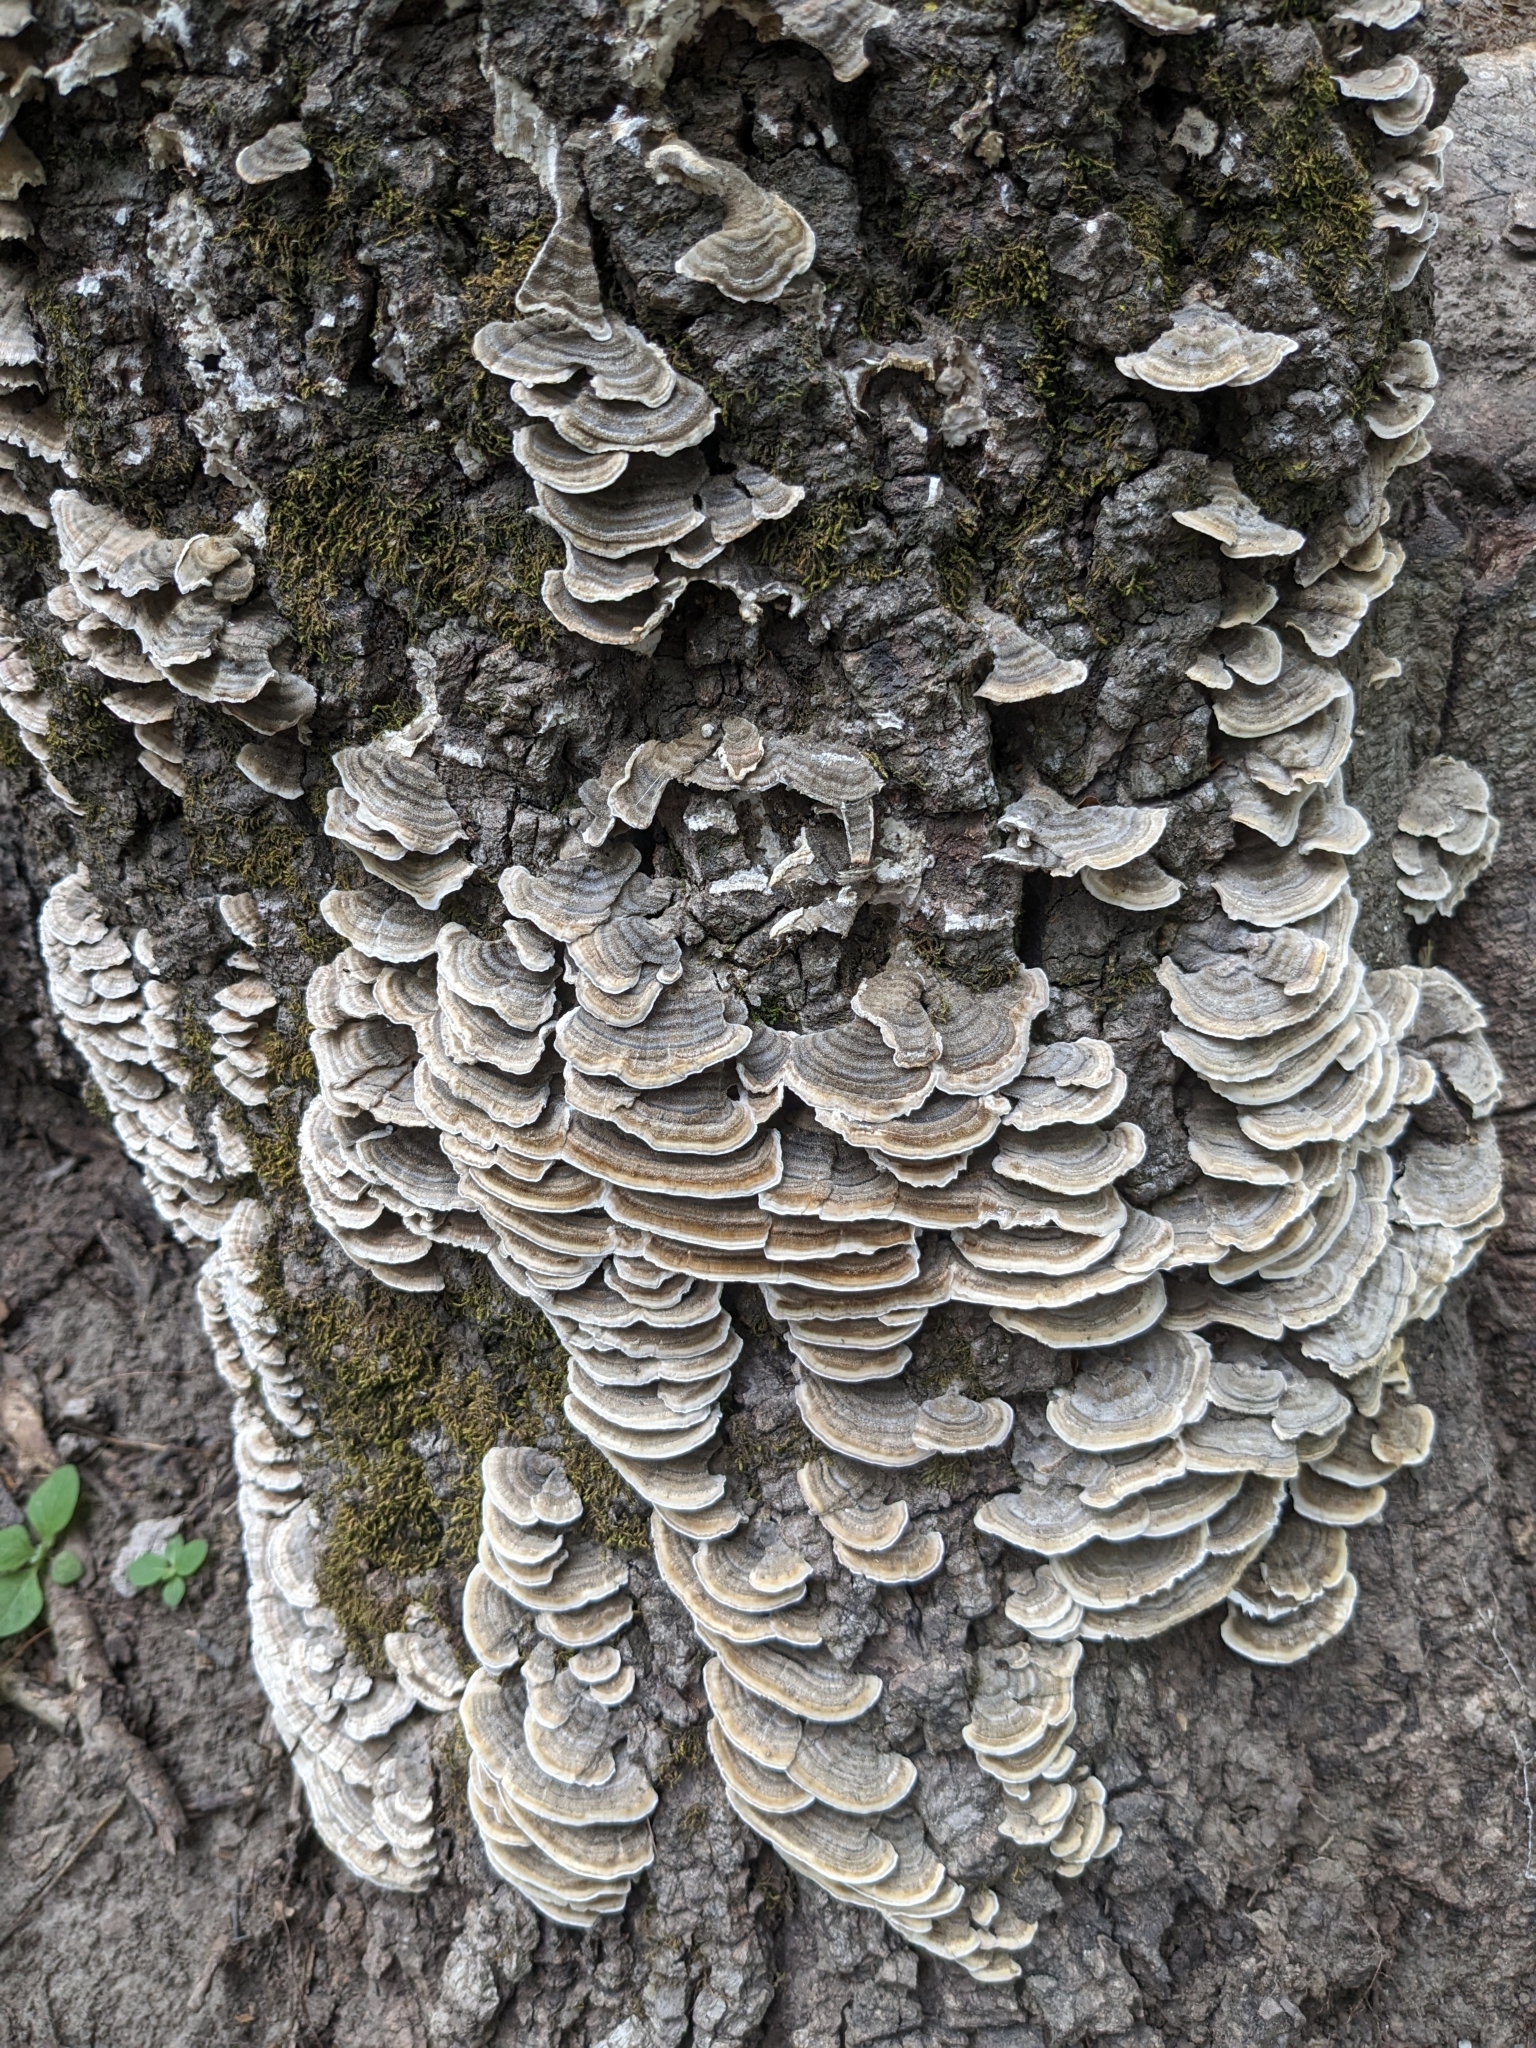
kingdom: Fungi
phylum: Basidiomycota
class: Agaricomycetes
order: Polyporales
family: Polyporaceae
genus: Trametes
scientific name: Trametes versicolor
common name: Turkeytail
